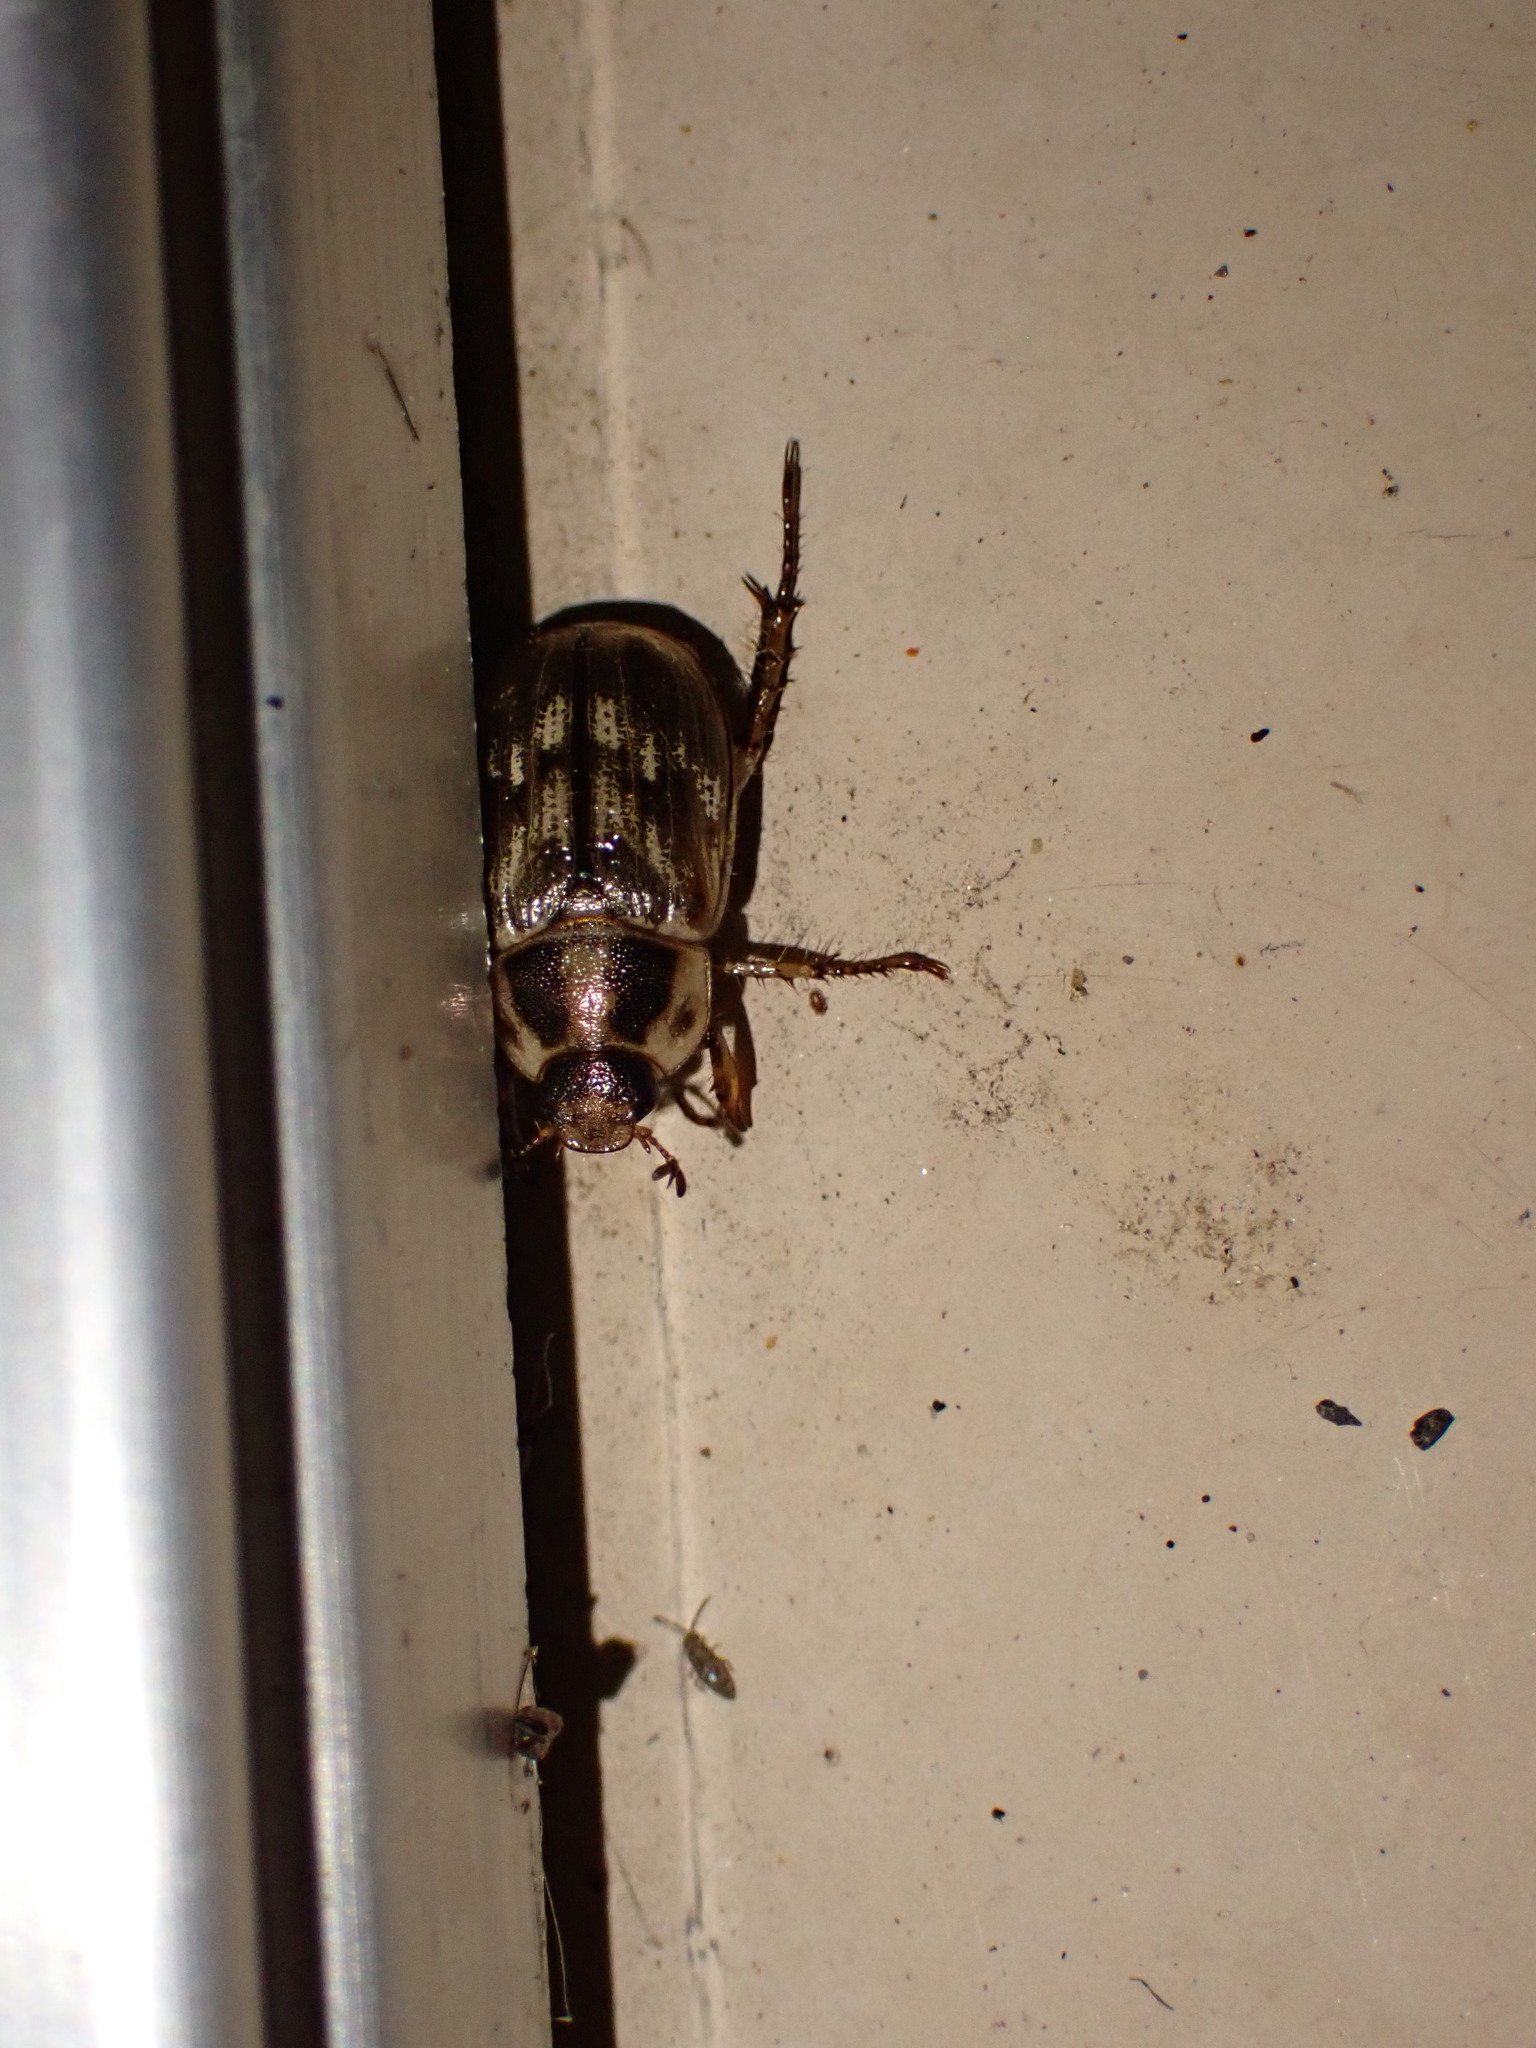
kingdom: Animalia
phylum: Arthropoda
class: Insecta
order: Coleoptera
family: Scarabaeidae
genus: Exomala
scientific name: Exomala orientalis
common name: Oriental beetle
